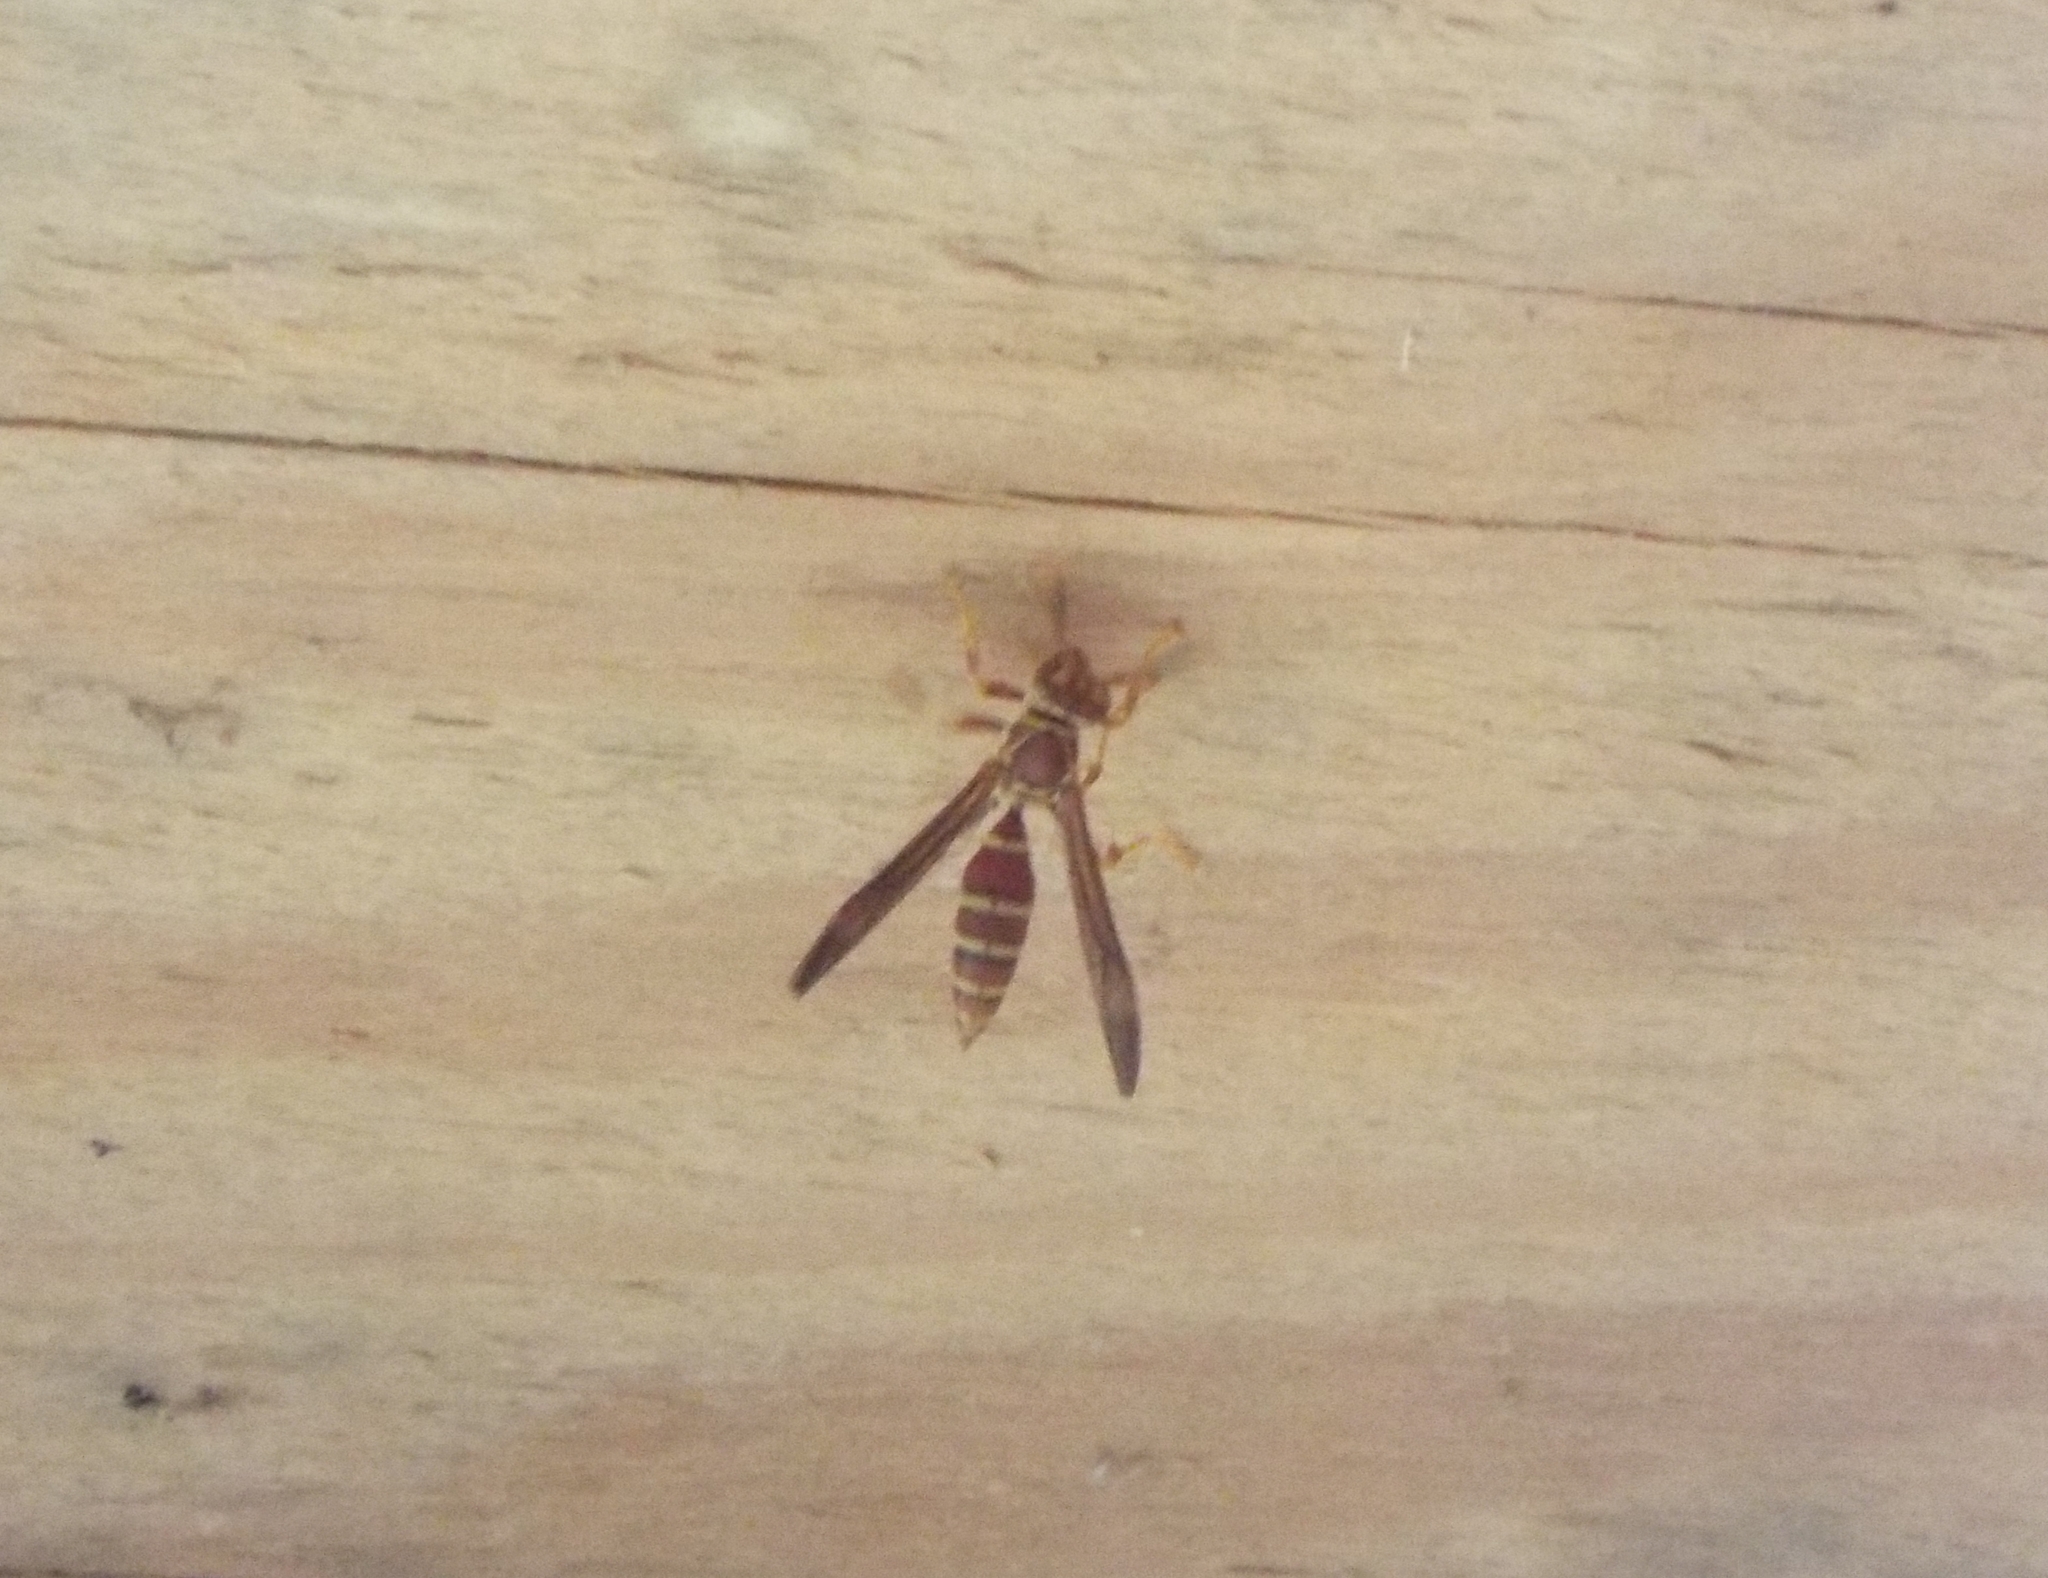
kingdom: Animalia
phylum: Arthropoda
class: Insecta
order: Hymenoptera
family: Eumenidae
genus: Polistes
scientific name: Polistes exclamans
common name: Paper wasp
